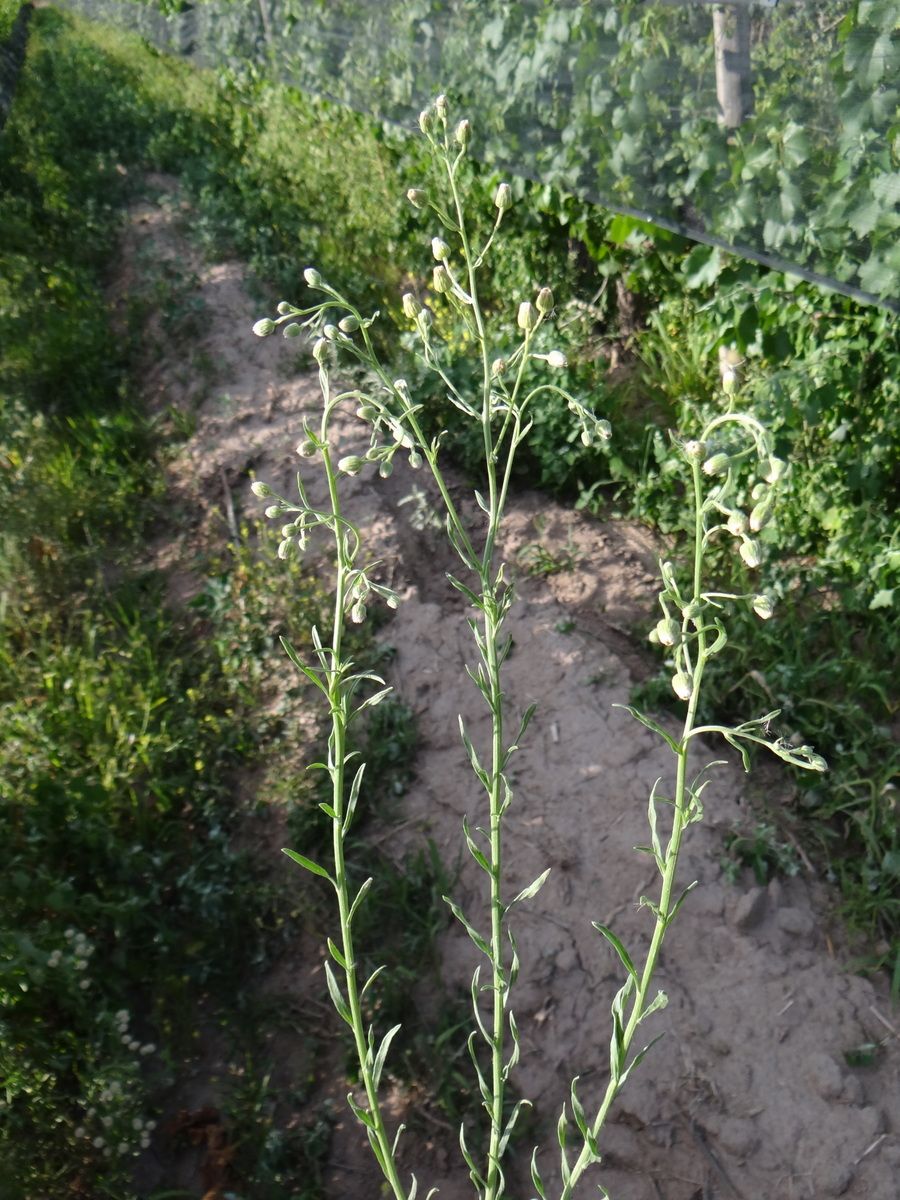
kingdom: Plantae
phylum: Tracheophyta
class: Magnoliopsida
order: Asterales
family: Asteraceae
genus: Erigeron
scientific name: Erigeron bonariensis
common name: Argentine fleabane
